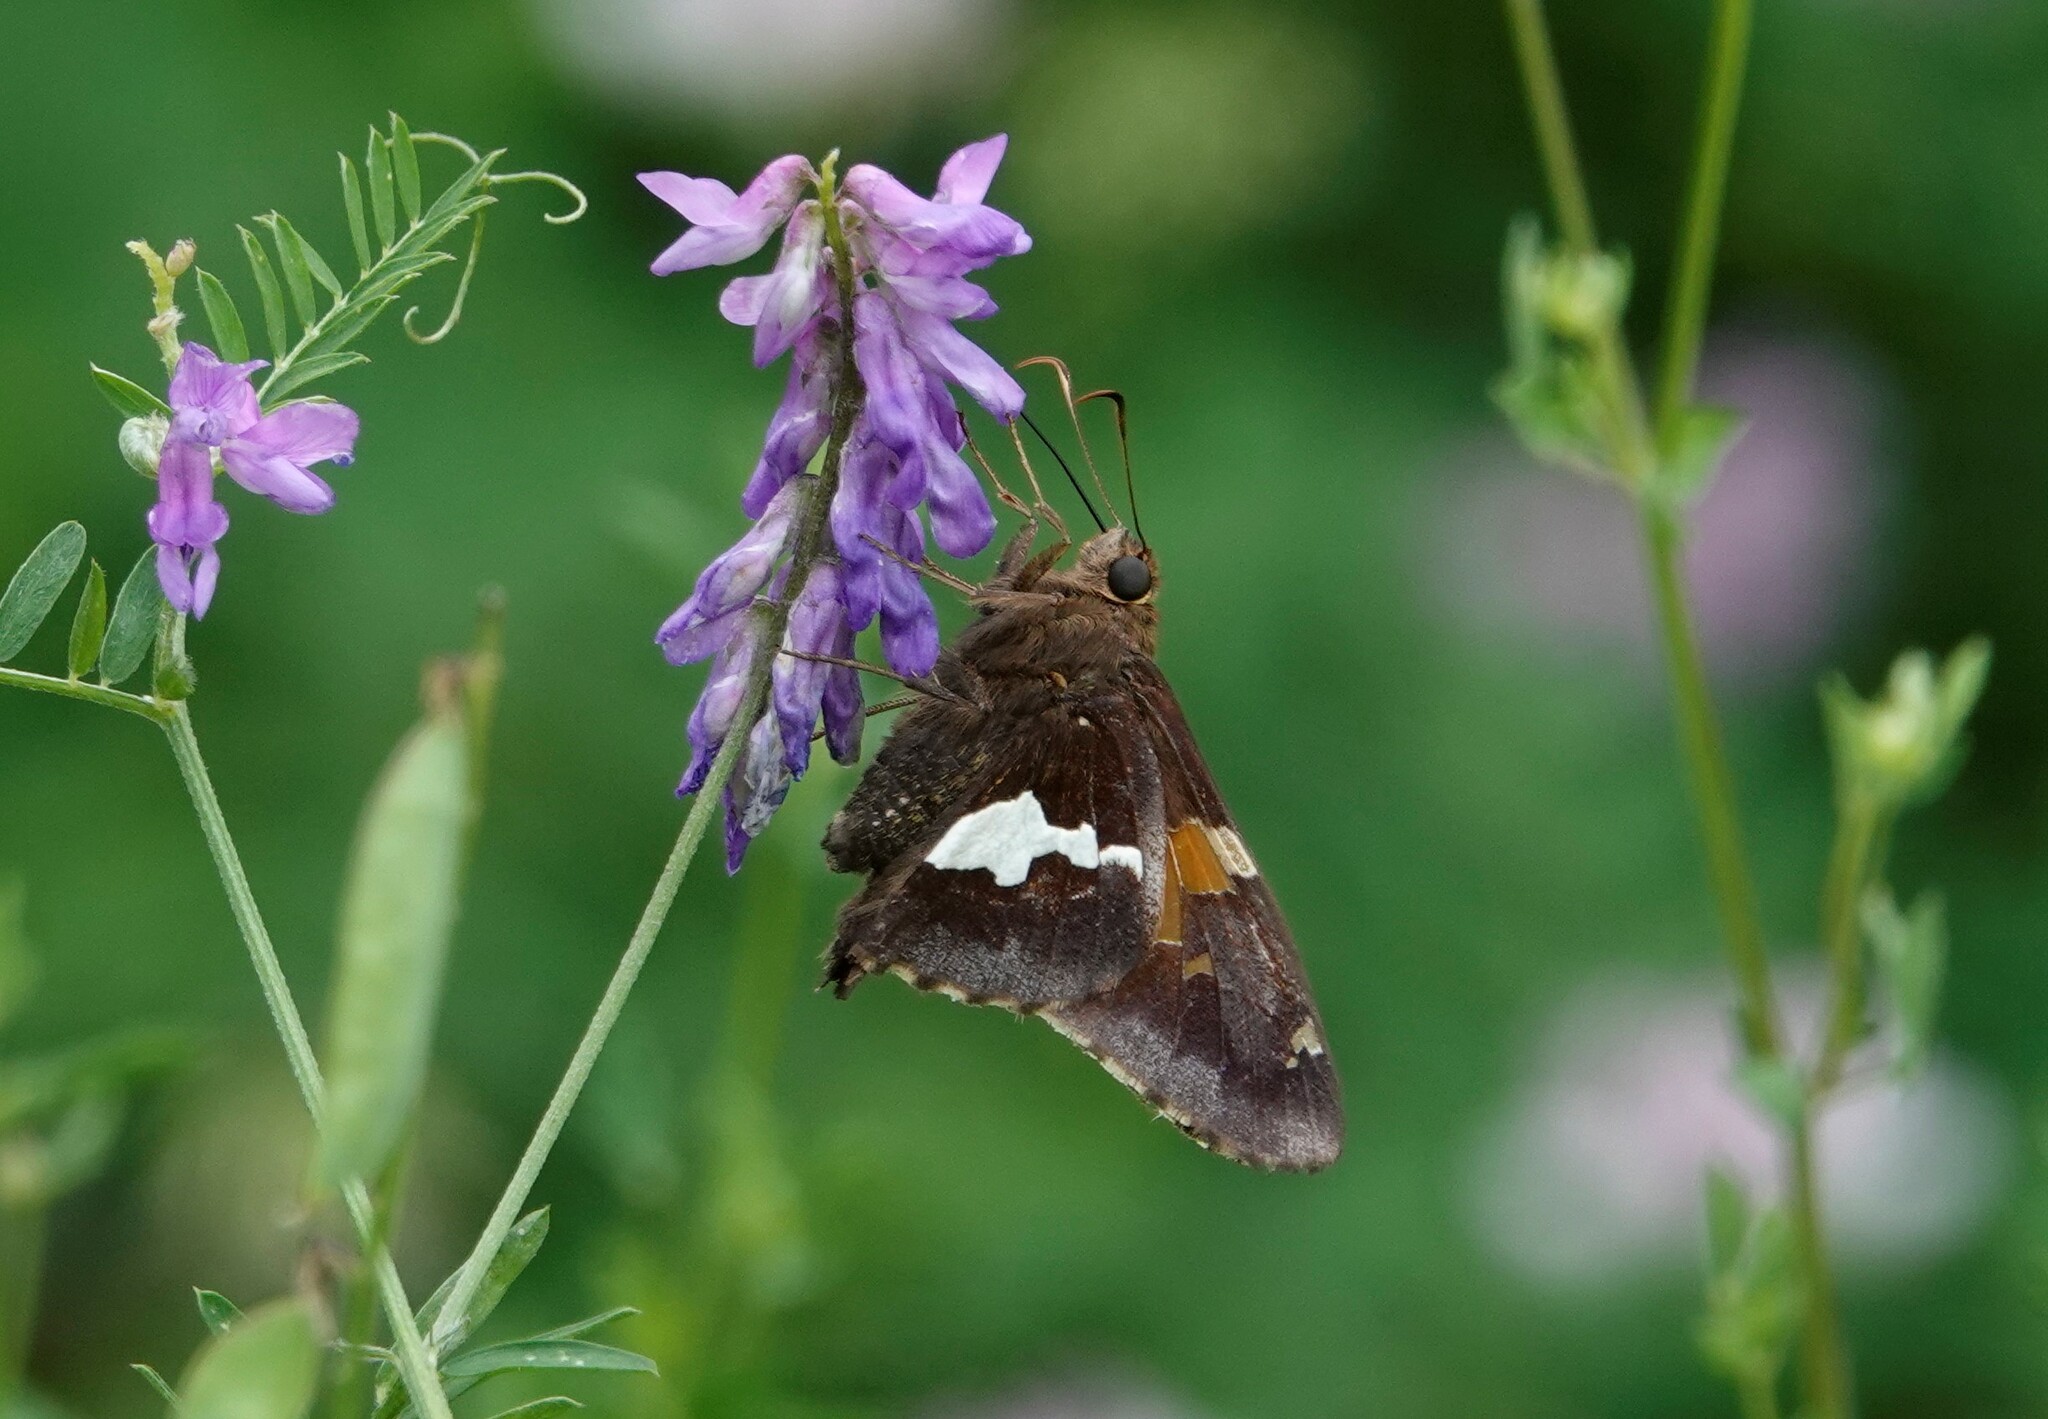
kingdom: Animalia
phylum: Arthropoda
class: Insecta
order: Lepidoptera
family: Hesperiidae
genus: Epargyreus
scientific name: Epargyreus clarus
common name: Silver-spotted skipper
